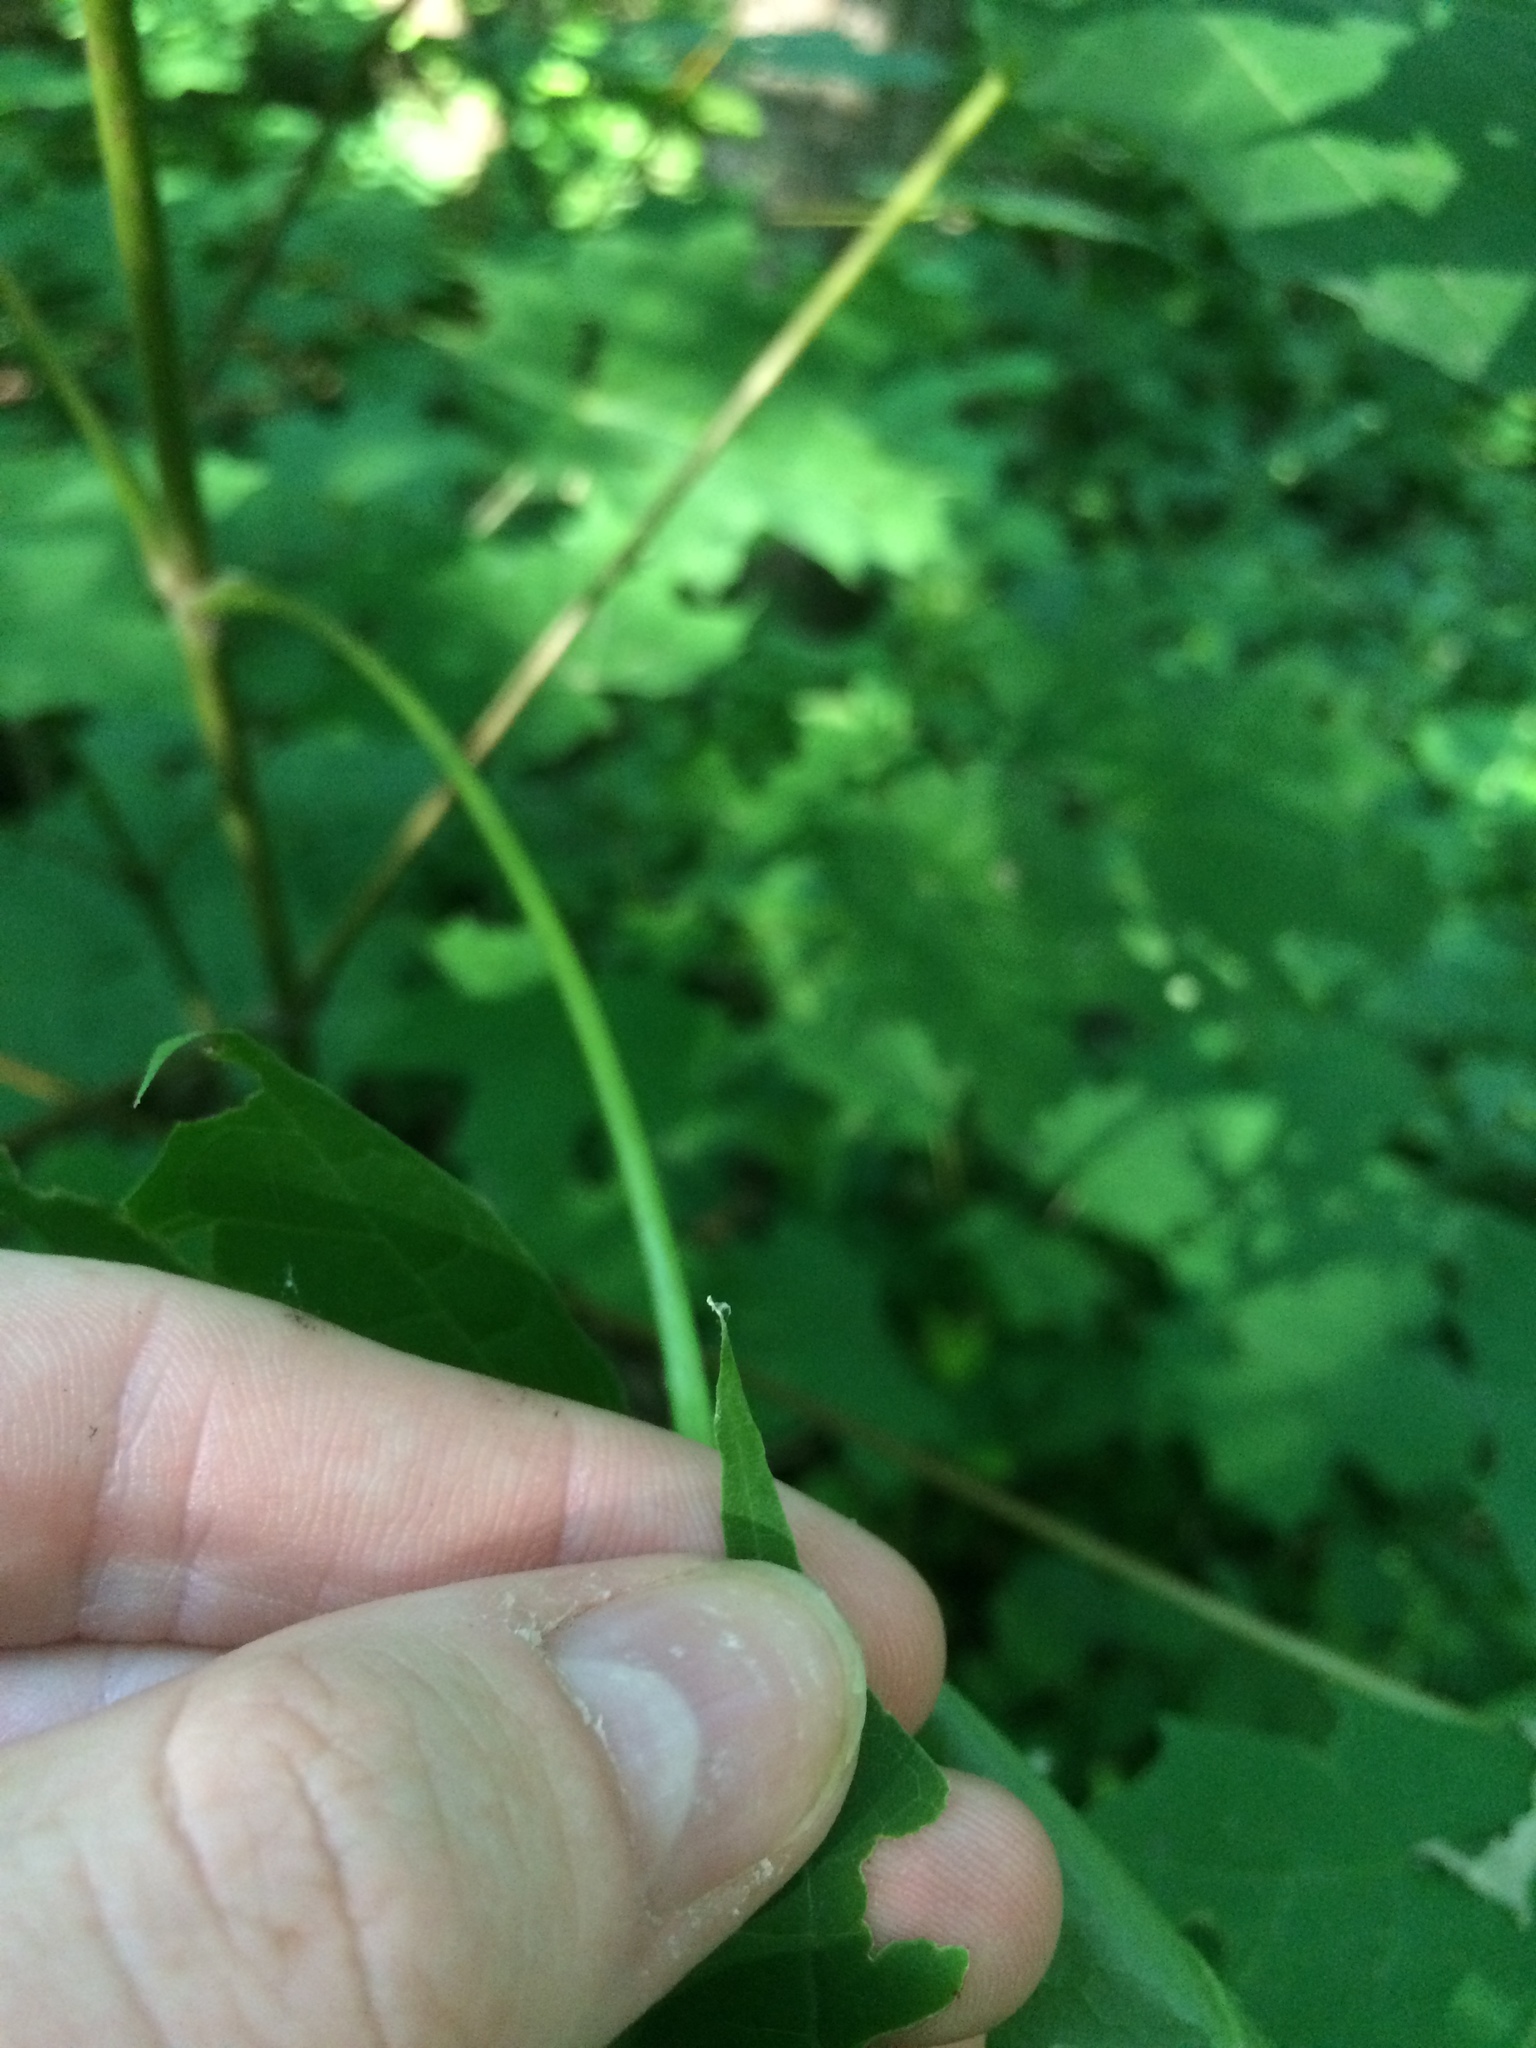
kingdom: Plantae
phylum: Tracheophyta
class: Magnoliopsida
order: Sapindales
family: Sapindaceae
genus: Acer
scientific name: Acer platanoides
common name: Norway maple
